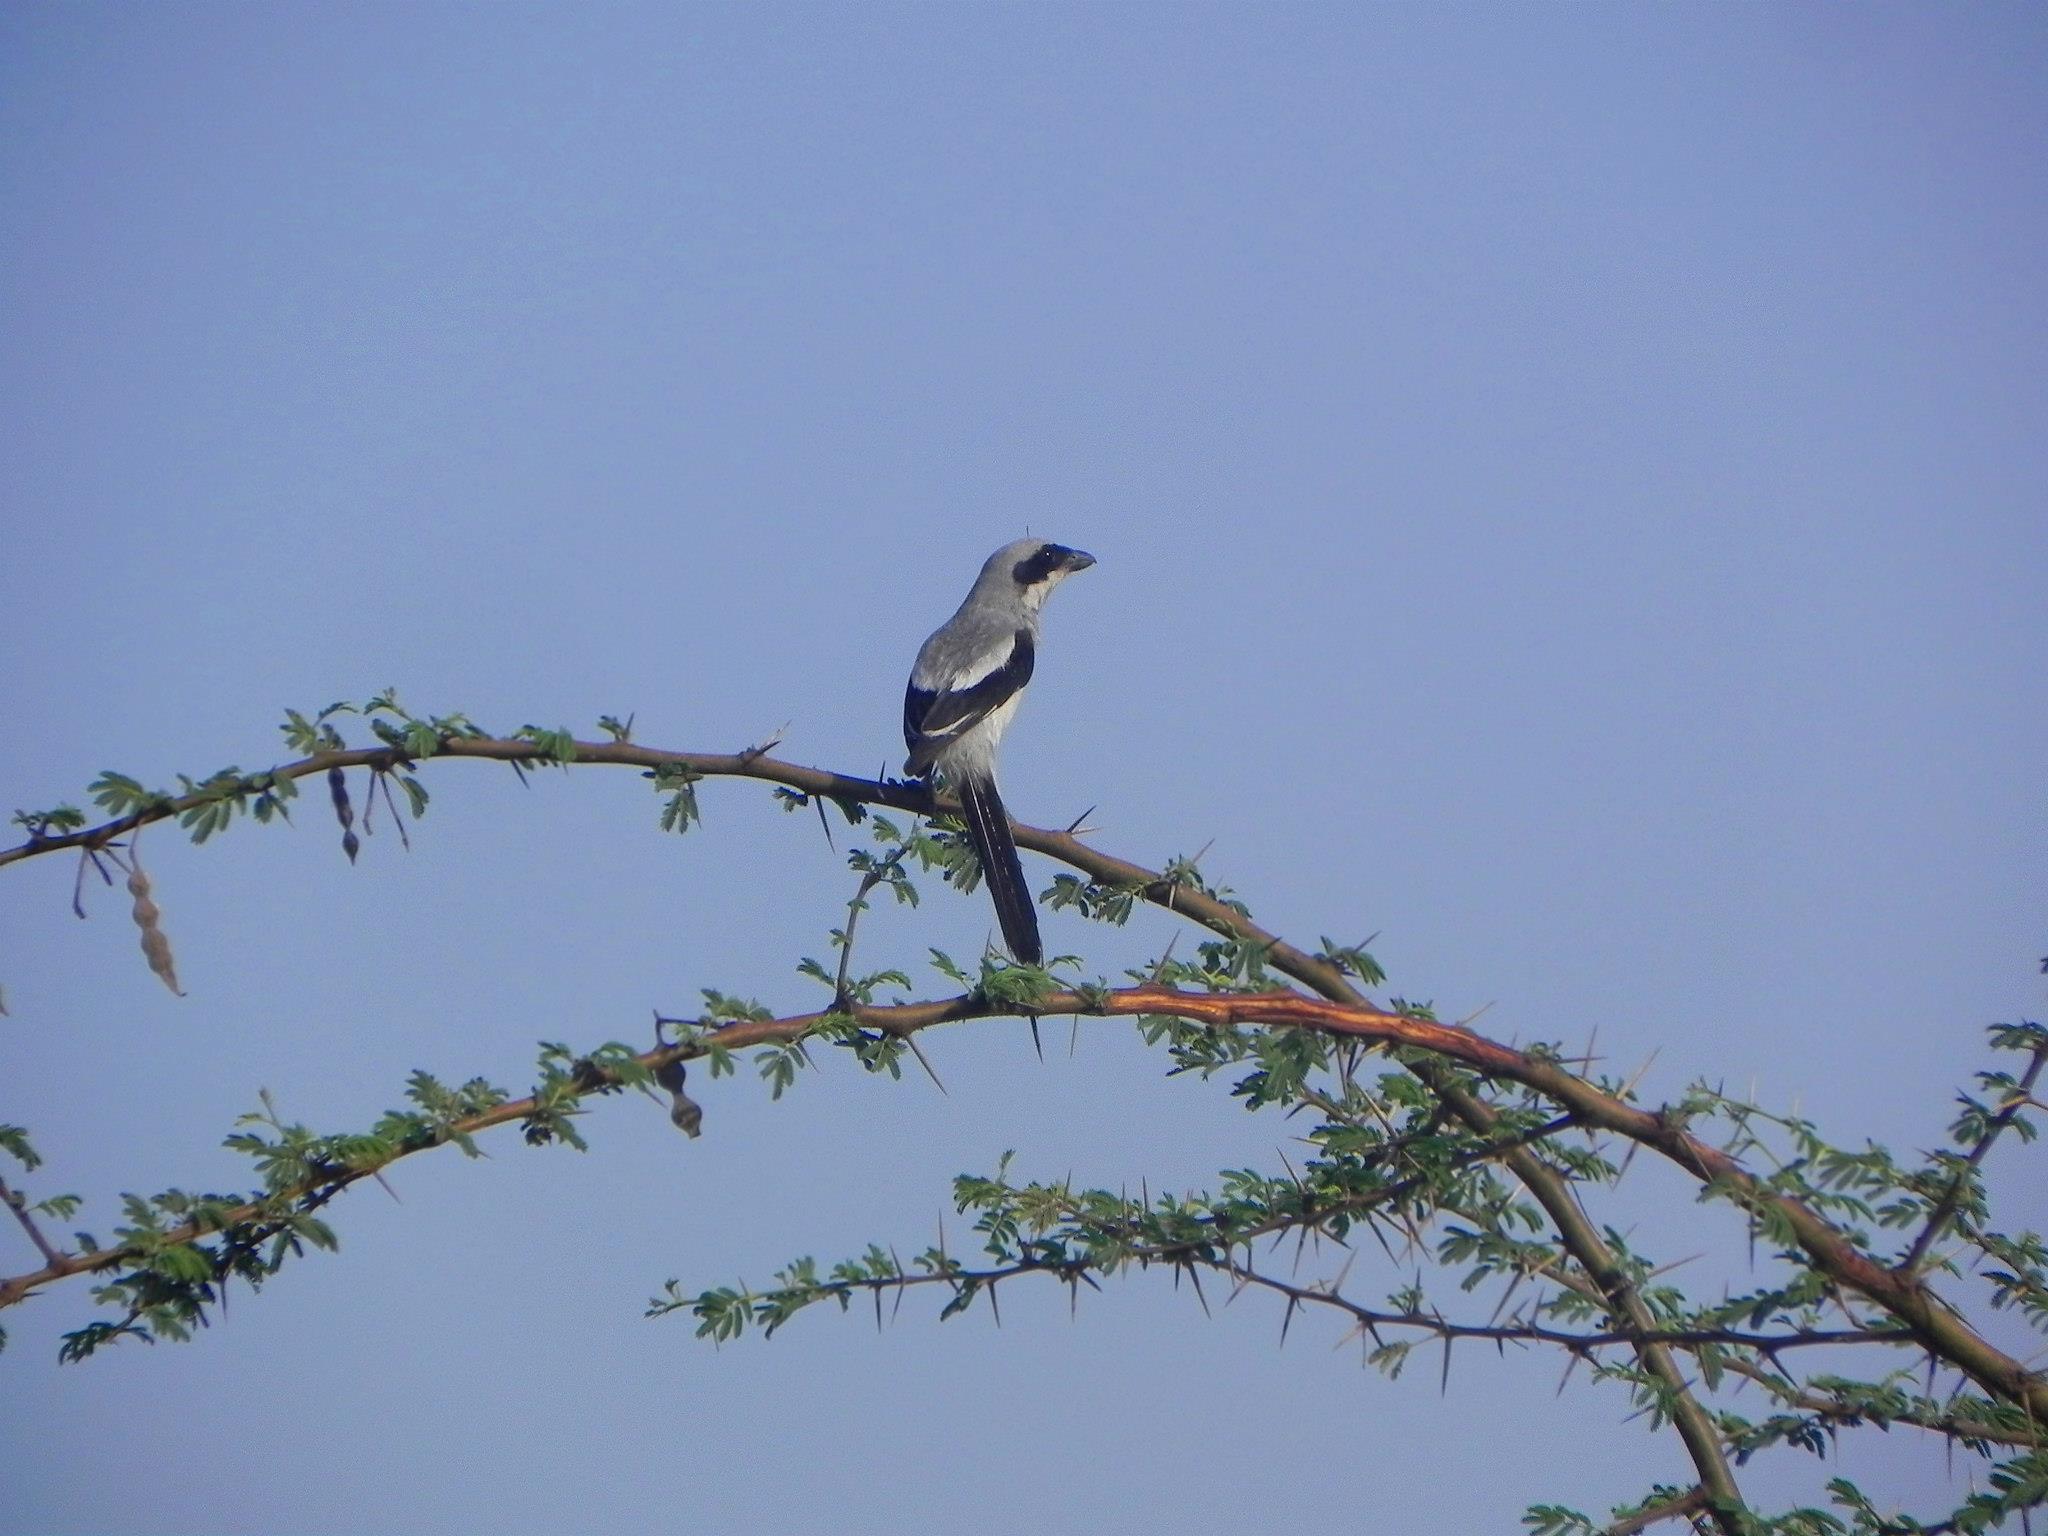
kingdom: Animalia
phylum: Chordata
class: Aves
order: Passeriformes
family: Laniidae
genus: Lanius
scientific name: Lanius excubitor
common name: Great grey shrike
